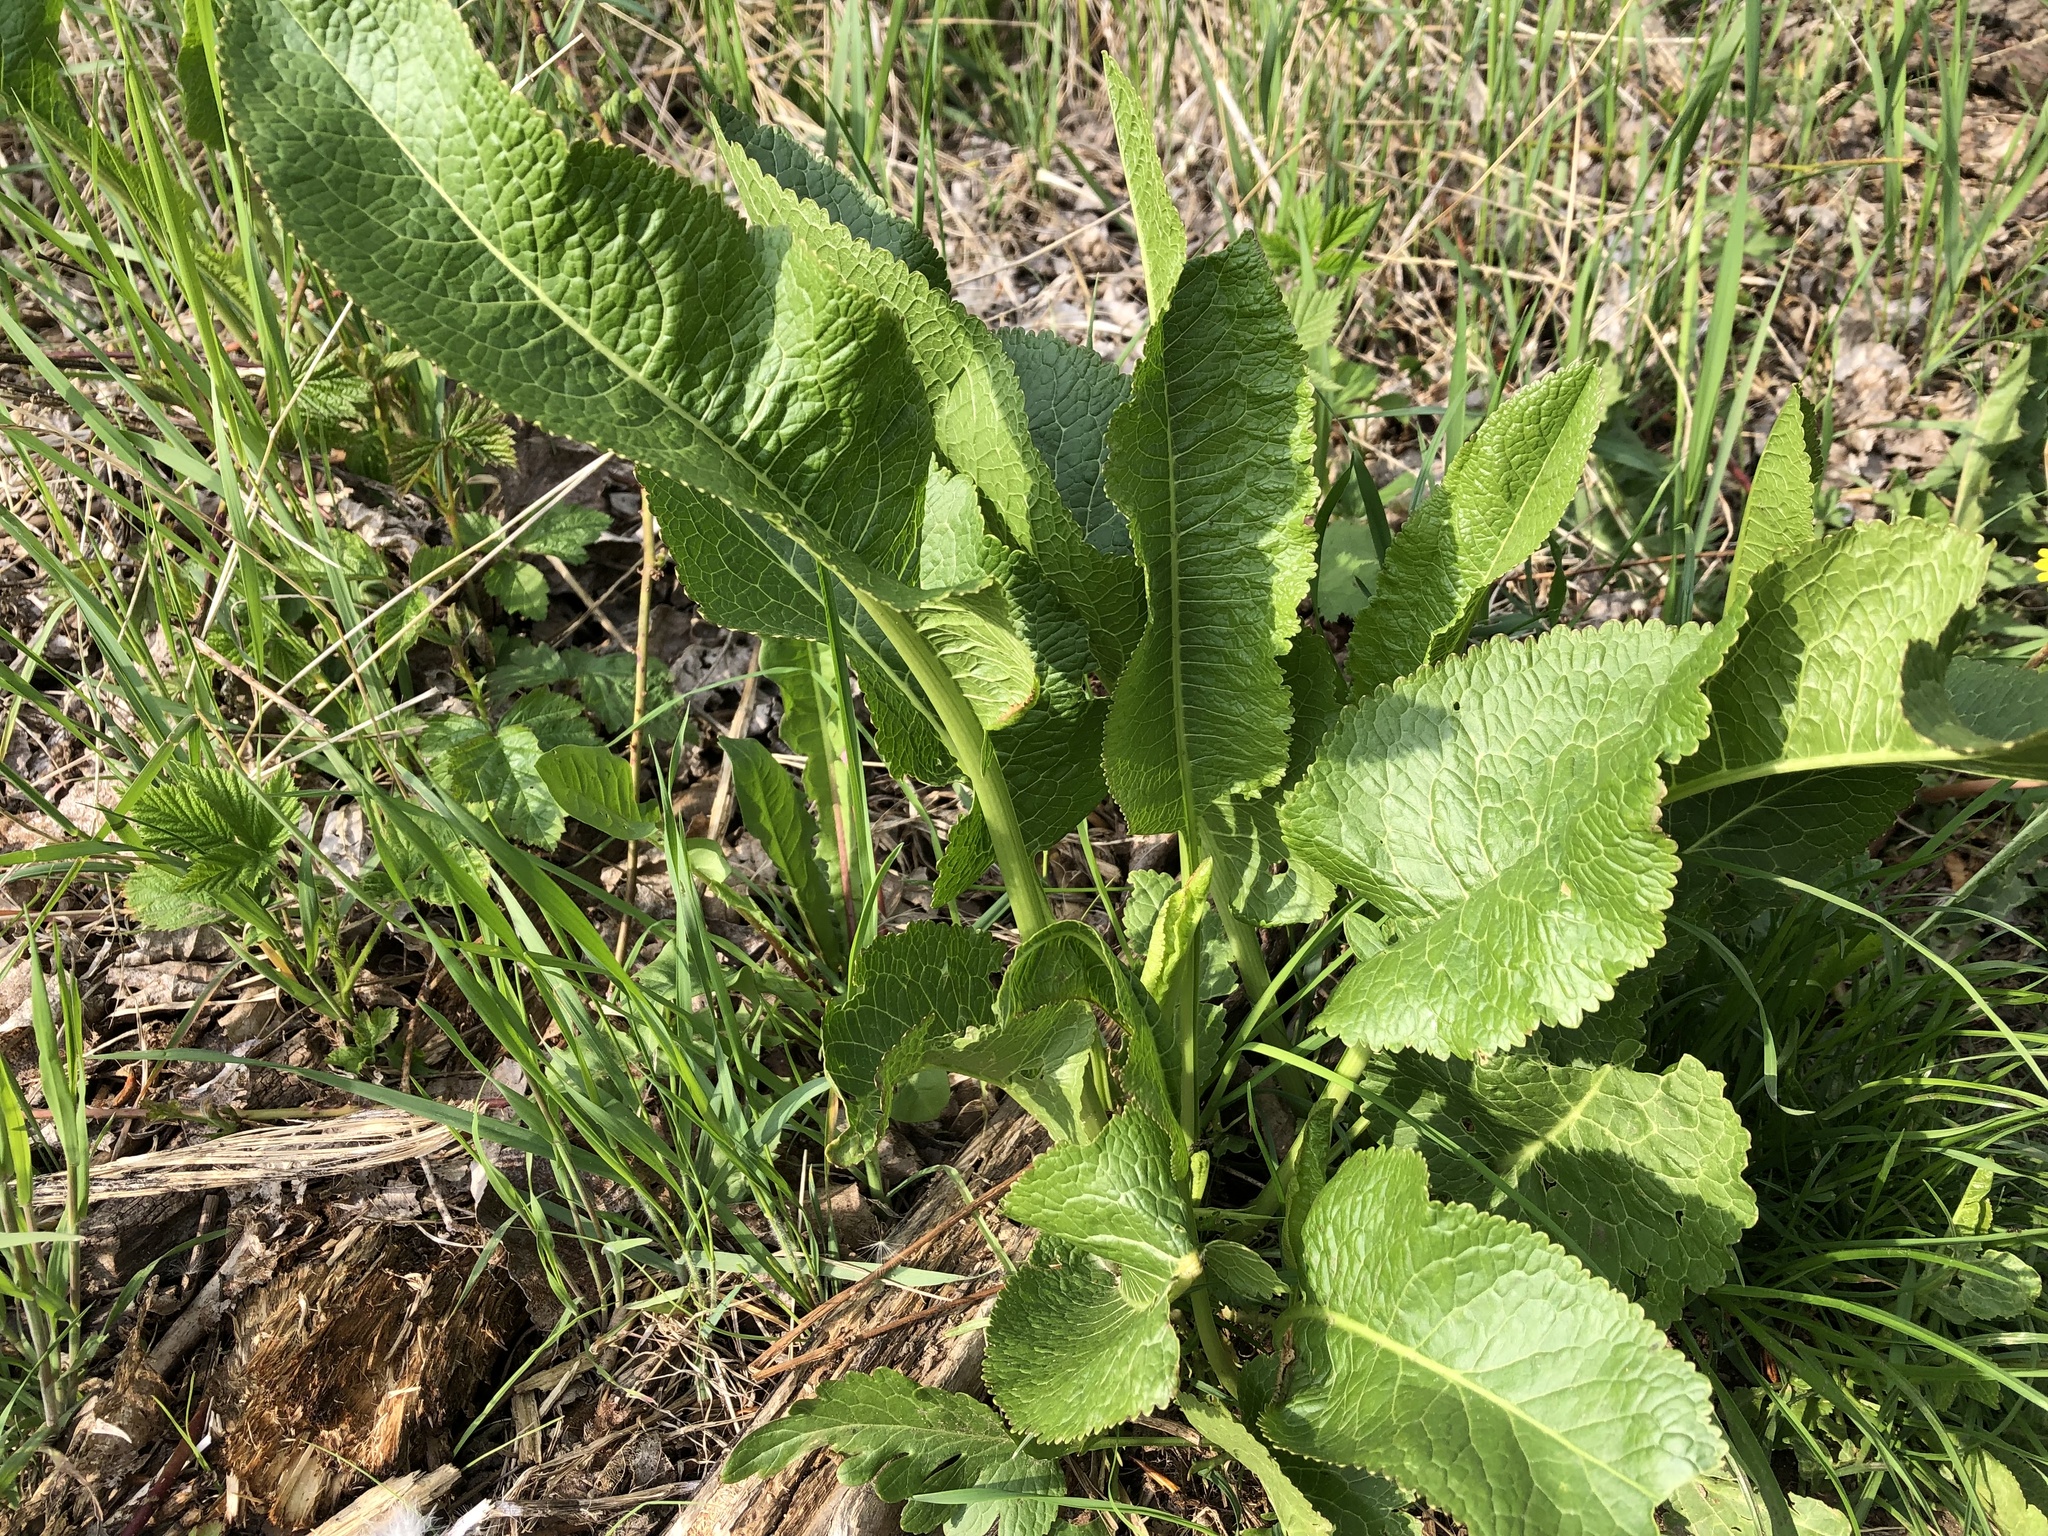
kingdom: Plantae
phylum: Tracheophyta
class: Magnoliopsida
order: Brassicales
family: Brassicaceae
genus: Armoracia
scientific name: Armoracia rusticana
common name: Horseradish
